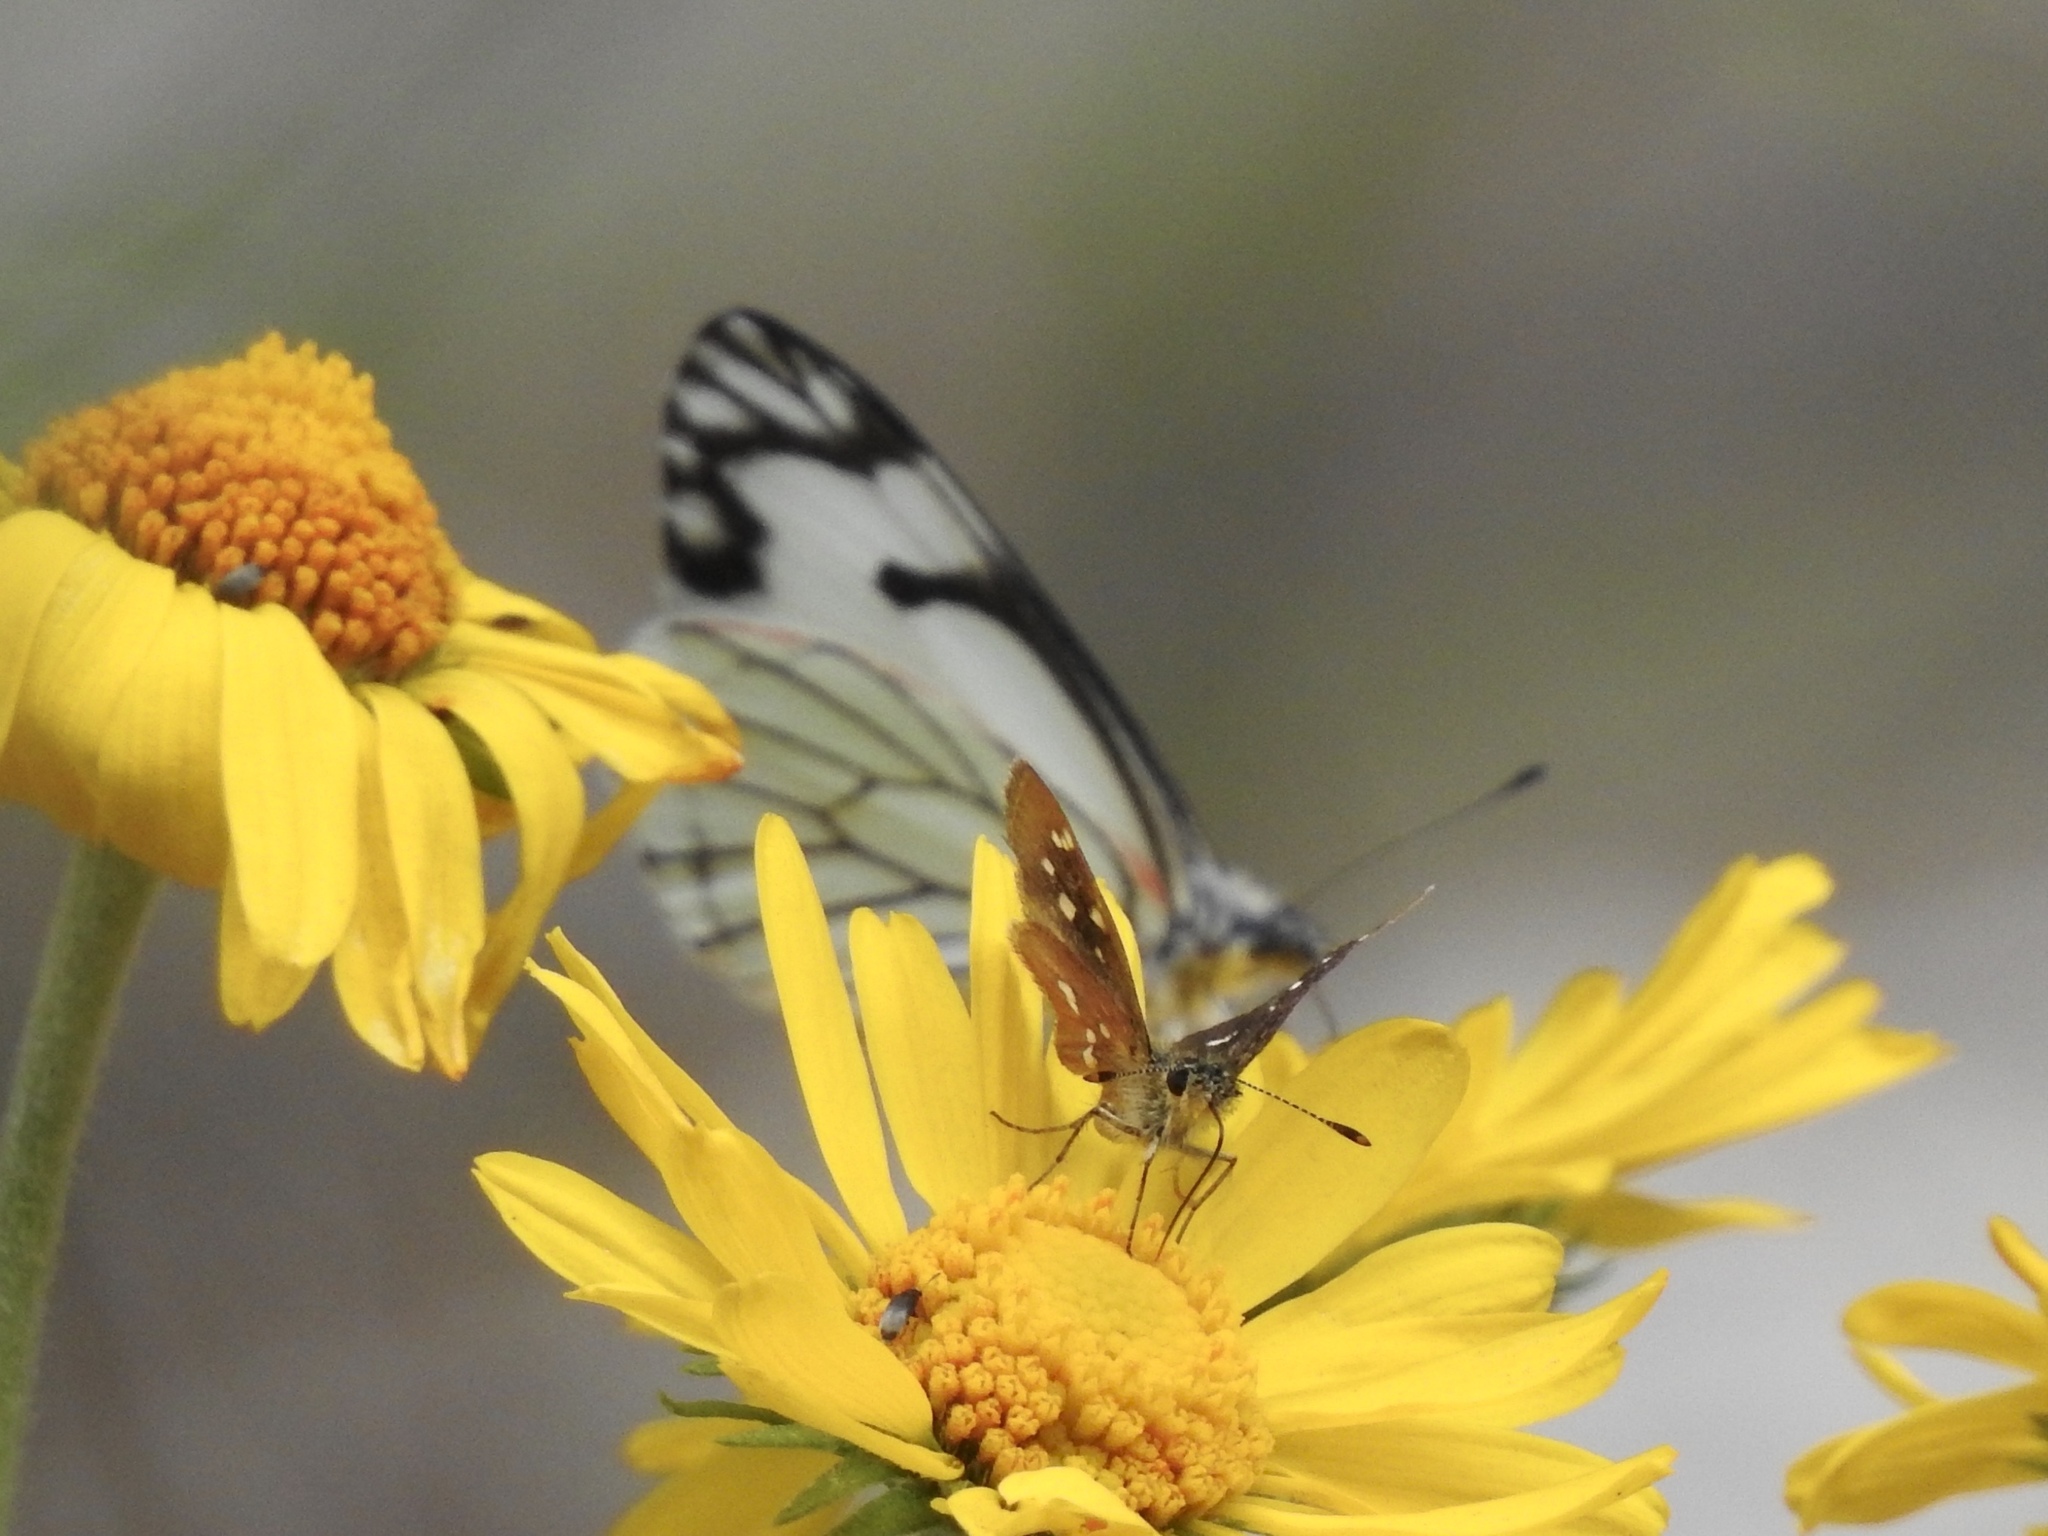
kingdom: Animalia
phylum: Arthropoda
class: Insecta
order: Lepidoptera
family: Hesperiidae
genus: Piruna
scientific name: Piruna polingii
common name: Four-spotted skipperling
